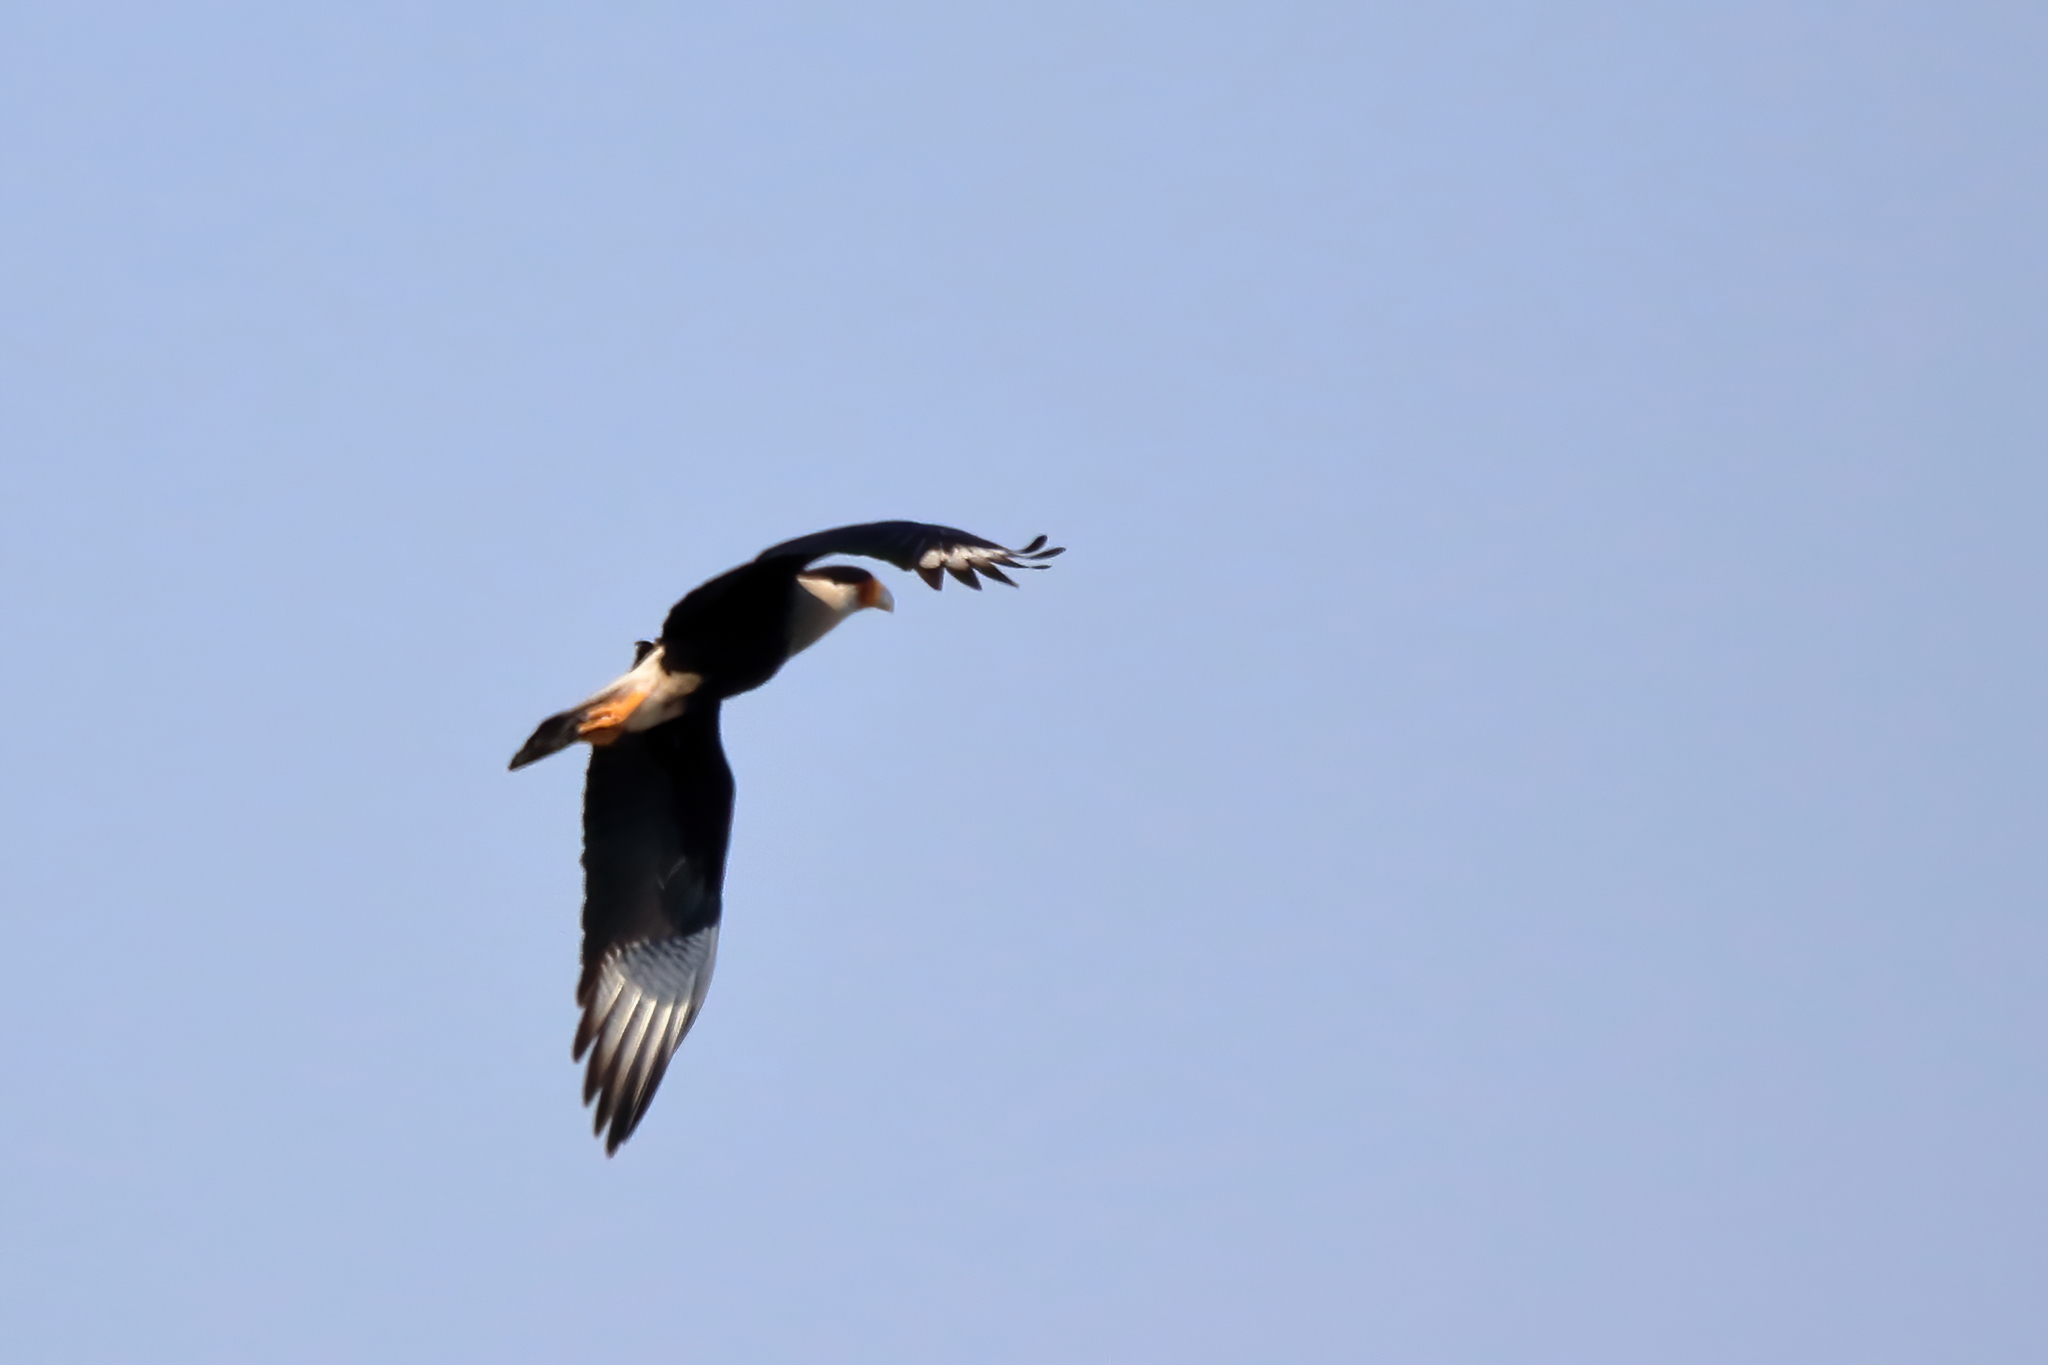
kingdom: Animalia
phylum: Chordata
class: Aves
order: Falconiformes
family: Falconidae
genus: Caracara
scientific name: Caracara plancus
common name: Southern caracara
